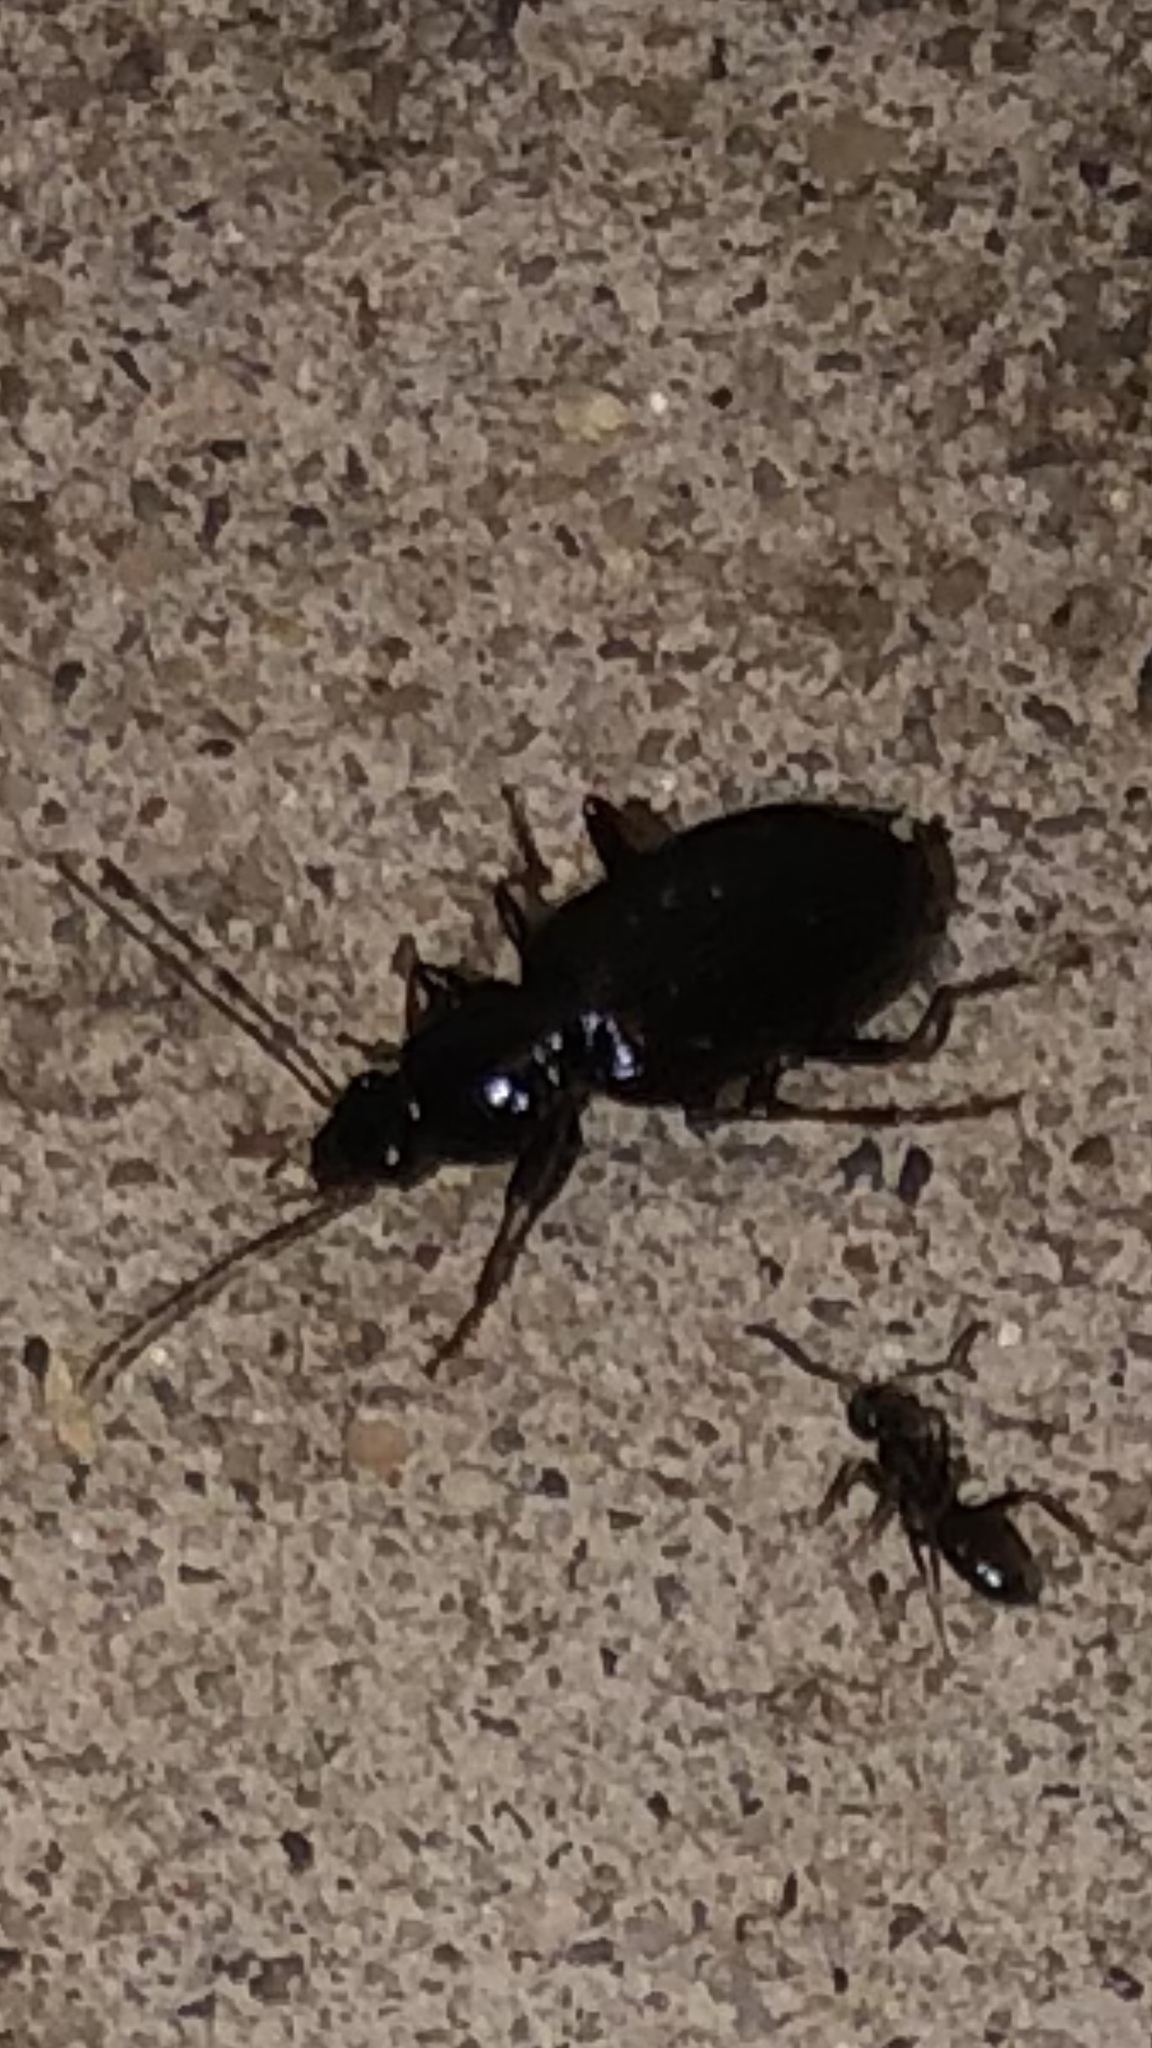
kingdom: Animalia
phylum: Arthropoda
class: Insecta
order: Coleoptera
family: Carabidae
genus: Agonum
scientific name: Agonum punctiforme
